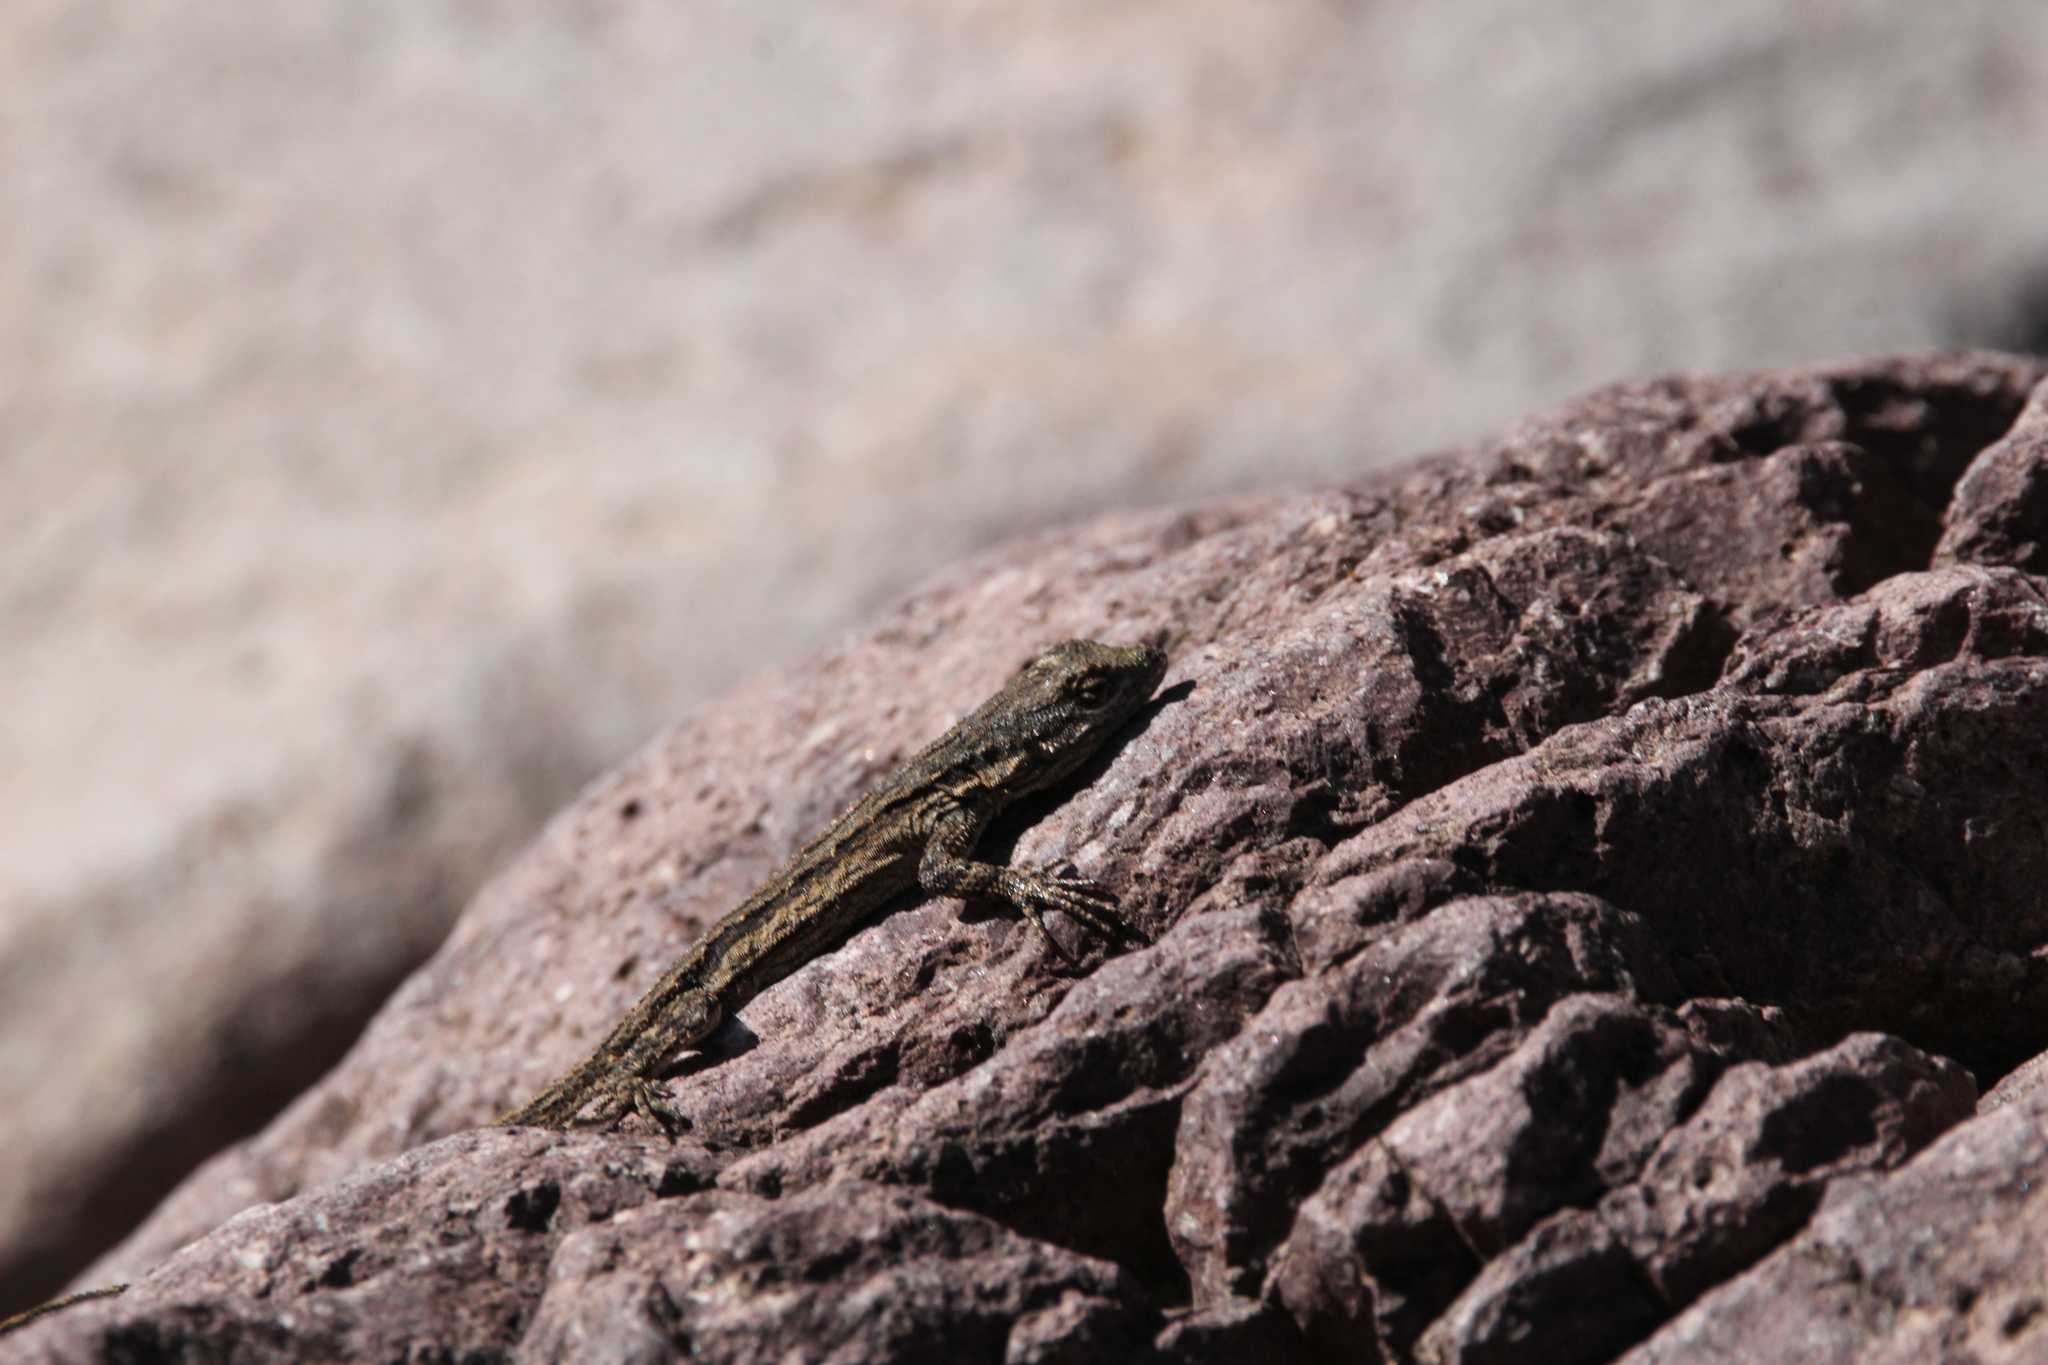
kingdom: Animalia
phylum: Chordata
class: Squamata
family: Phrynosomatidae
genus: Urosaurus
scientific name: Urosaurus ornatus
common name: Ornate tree lizard
